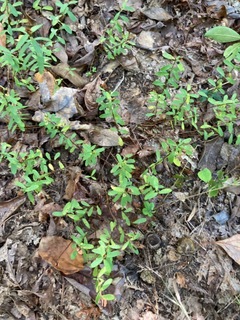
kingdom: Plantae
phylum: Tracheophyta
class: Magnoliopsida
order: Malpighiales
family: Hypericaceae
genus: Hypericum
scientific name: Hypericum hypericoides
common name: St. andrew's cross
